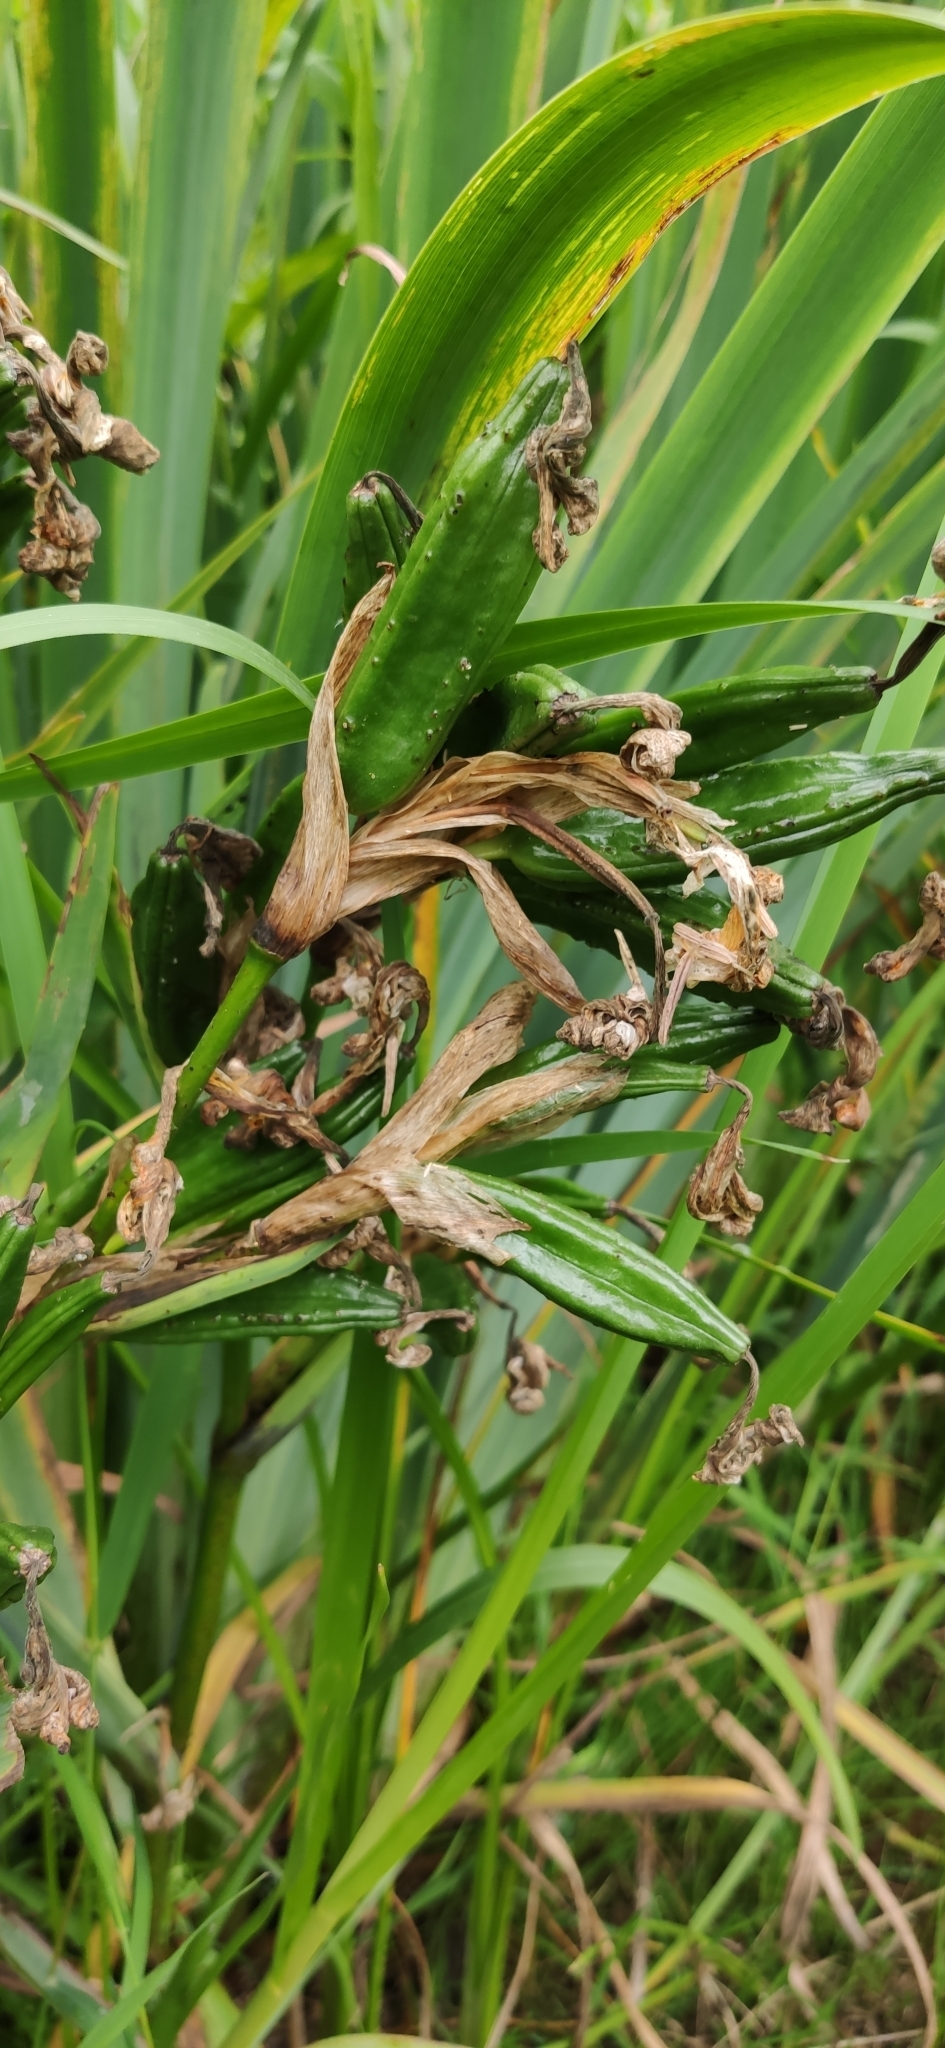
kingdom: Plantae
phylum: Tracheophyta
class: Liliopsida
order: Asparagales
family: Iridaceae
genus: Iris
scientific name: Iris pseudacorus
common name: Yellow flag
